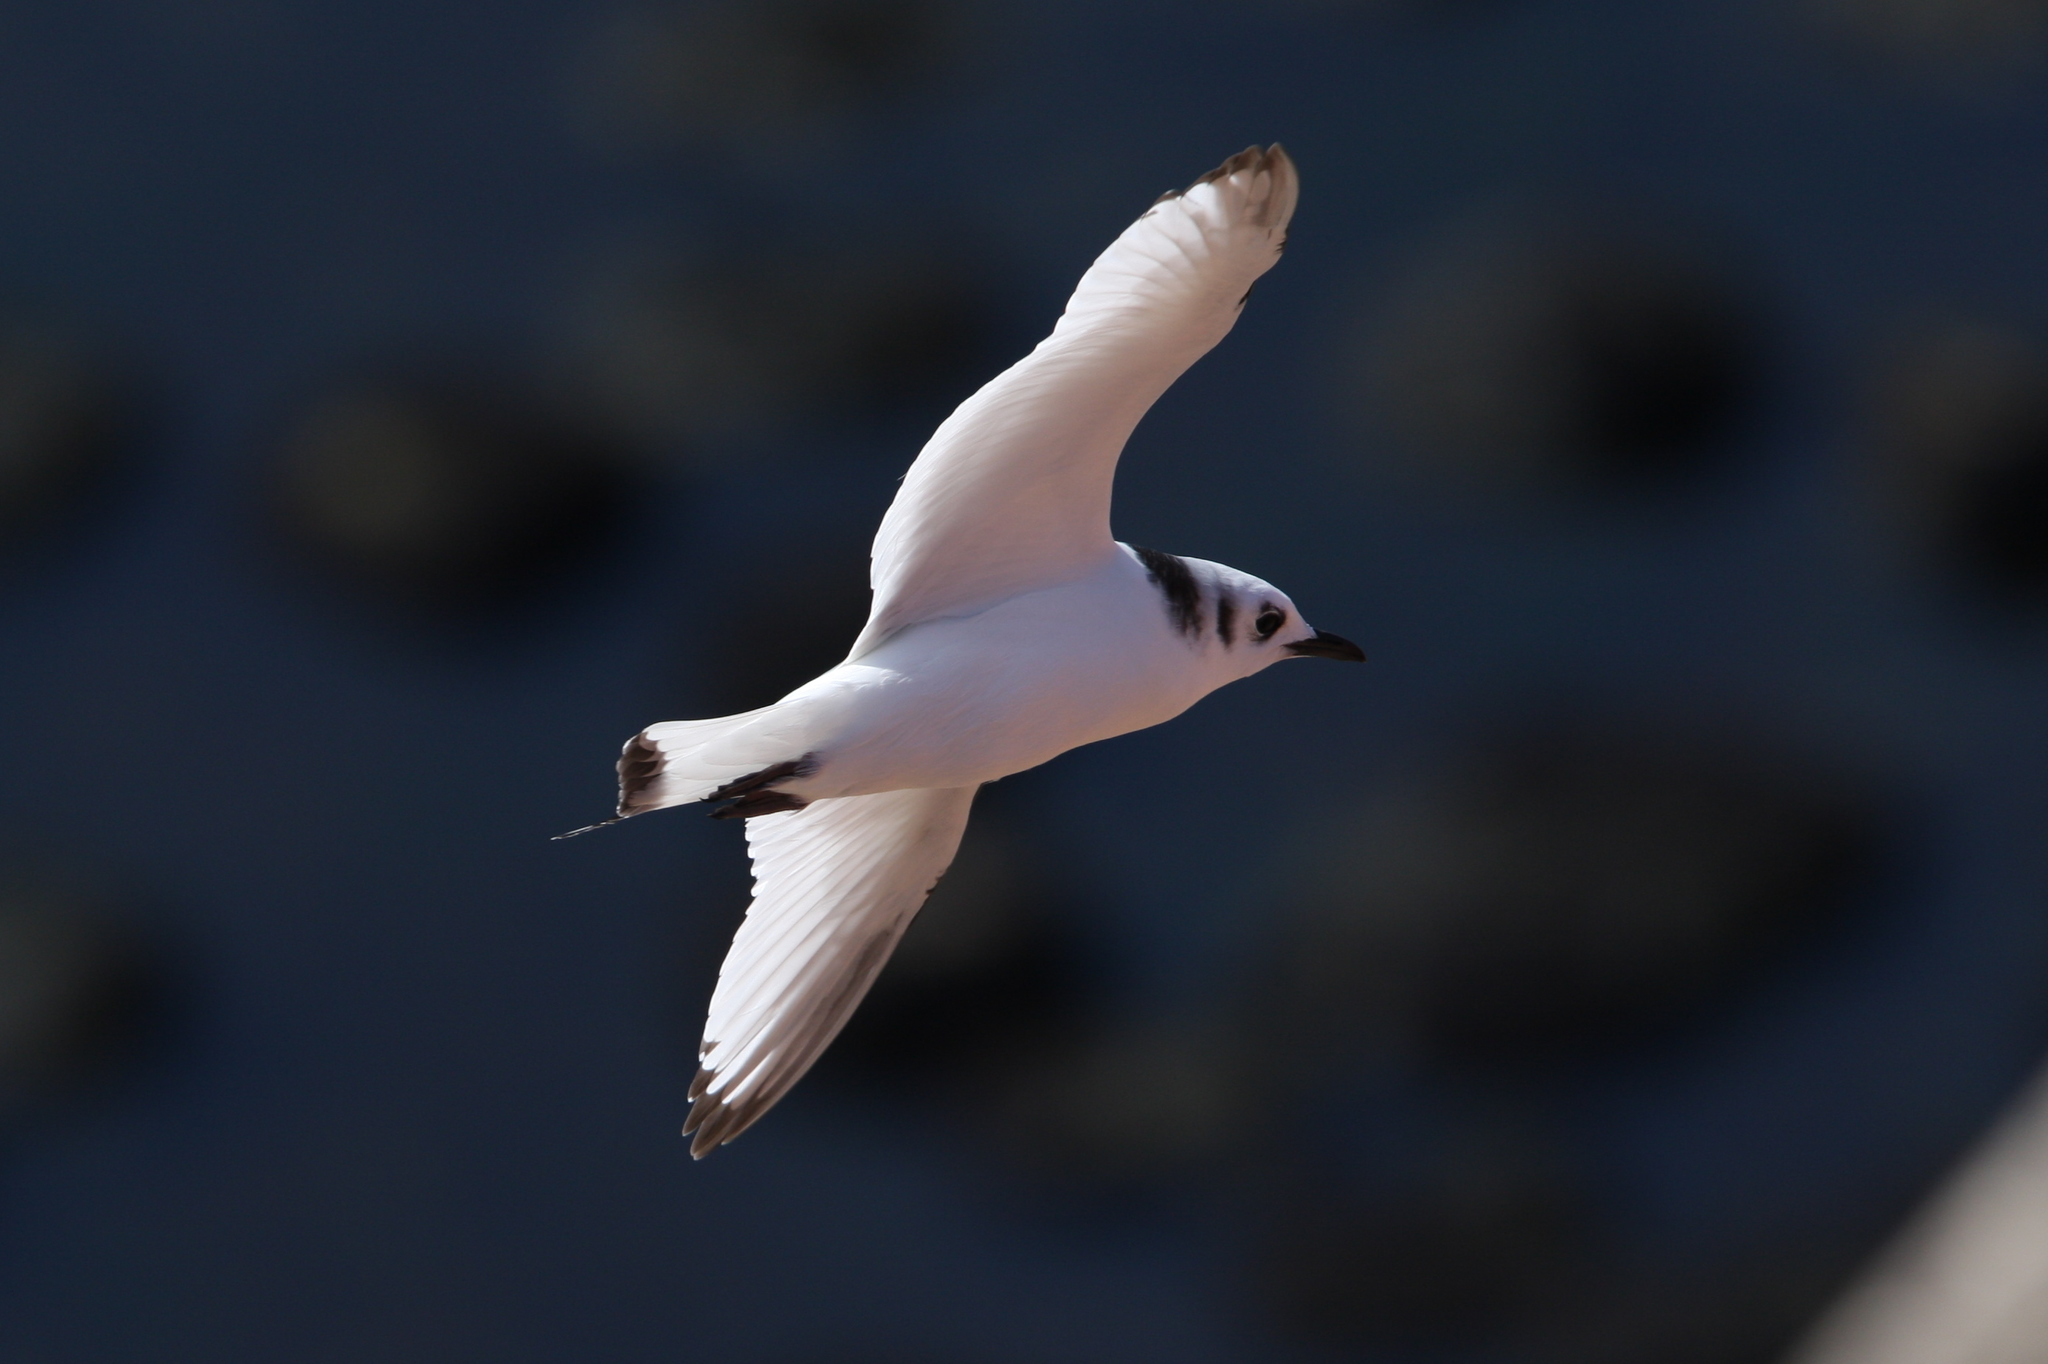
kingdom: Animalia
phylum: Chordata
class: Aves
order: Charadriiformes
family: Laridae
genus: Rissa
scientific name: Rissa tridactyla
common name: Black-legged kittiwake
